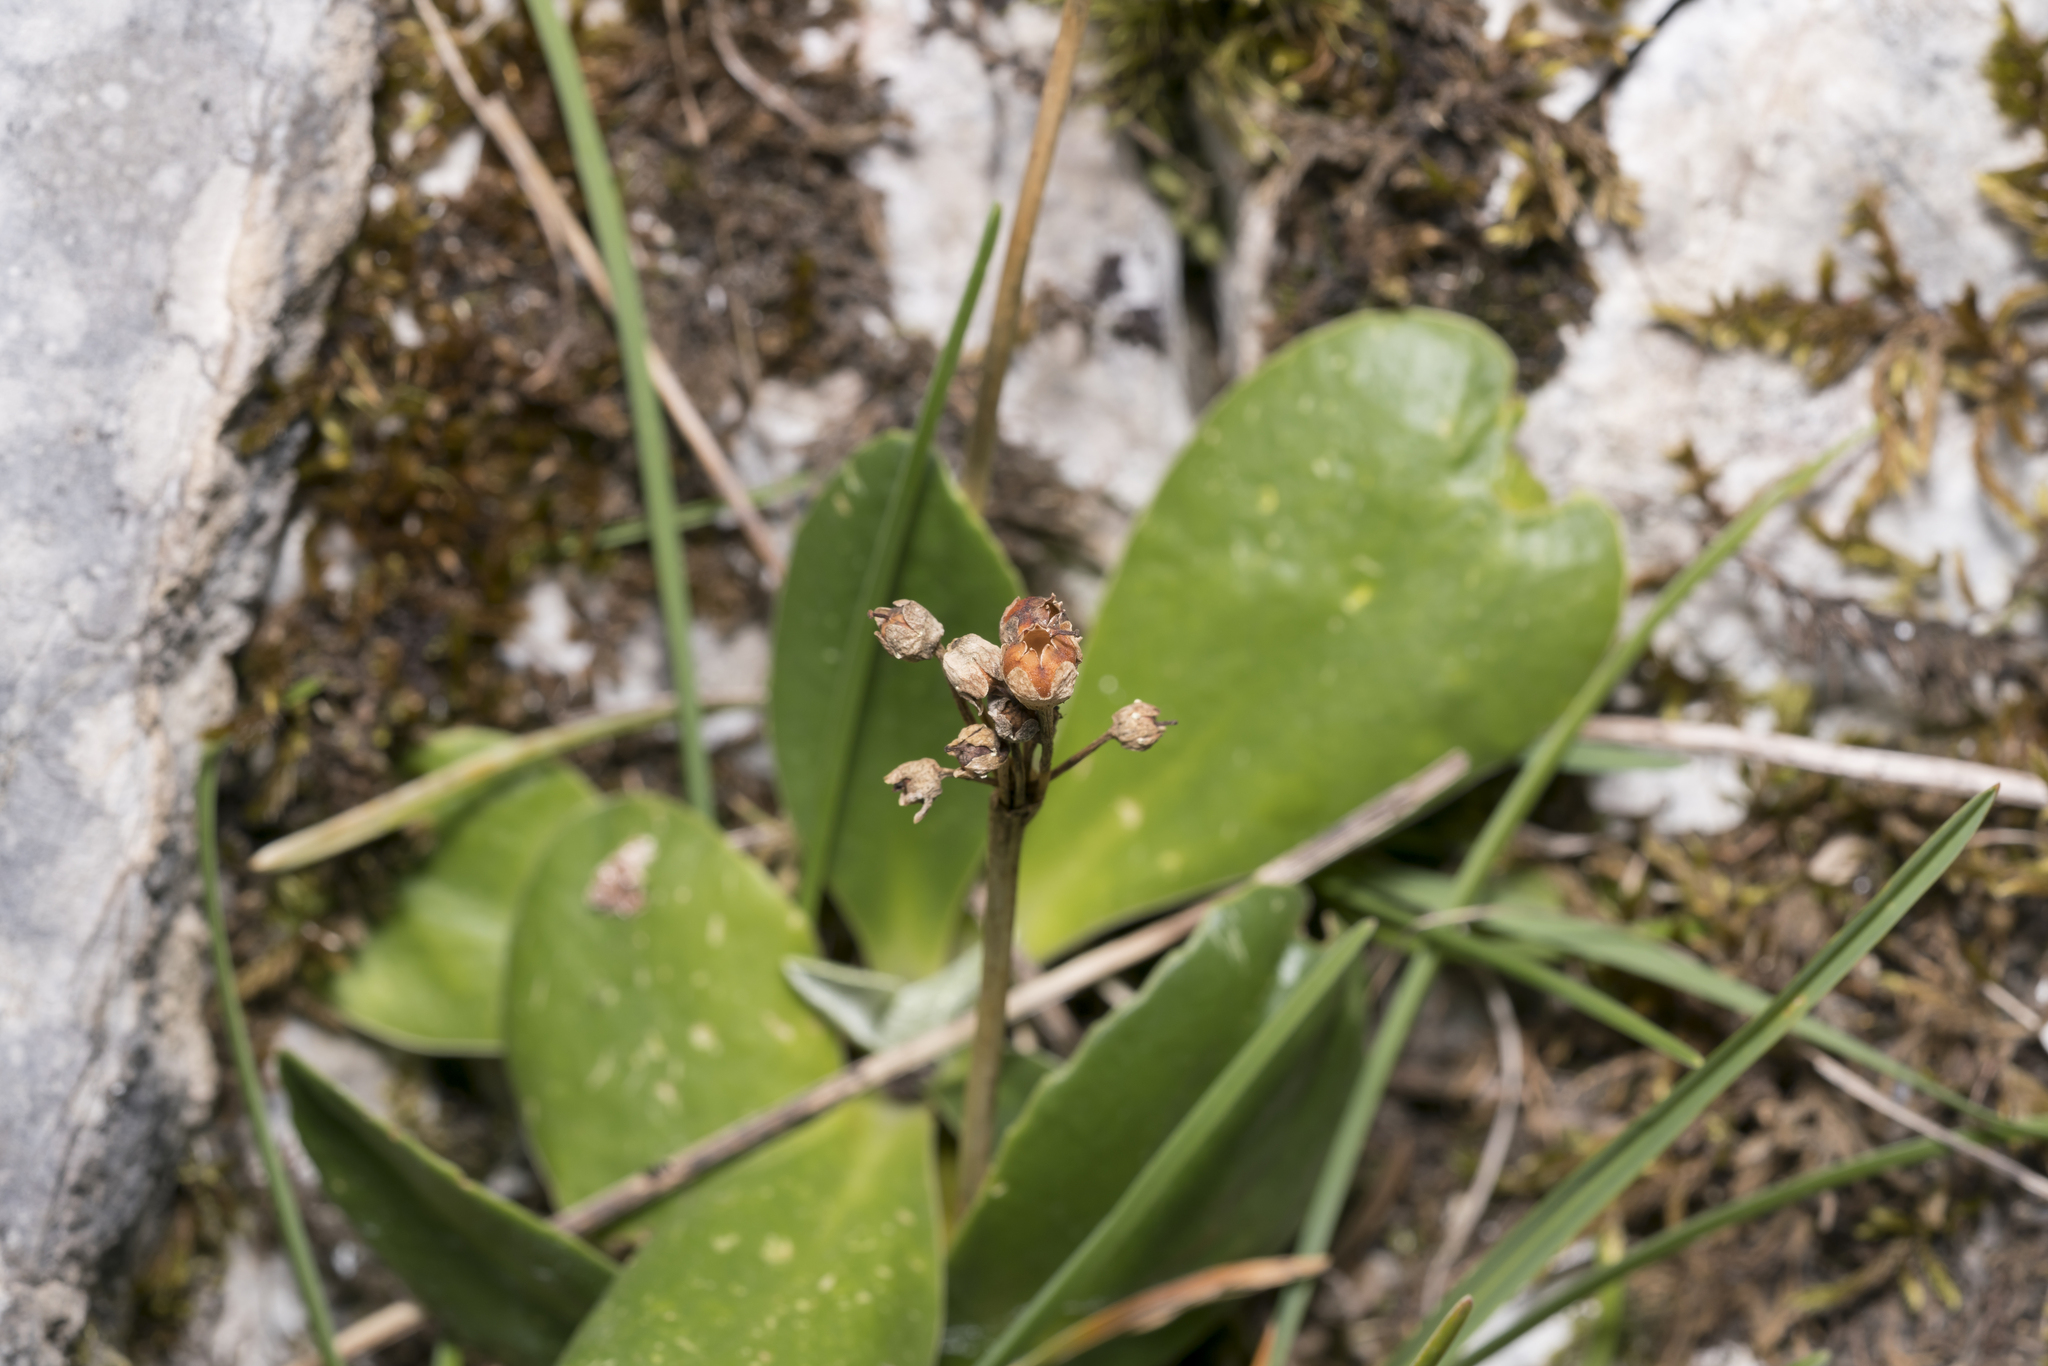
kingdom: Plantae
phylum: Tracheophyta
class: Magnoliopsida
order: Ericales
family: Primulaceae
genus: Primula
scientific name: Primula auricula
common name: Auricula
